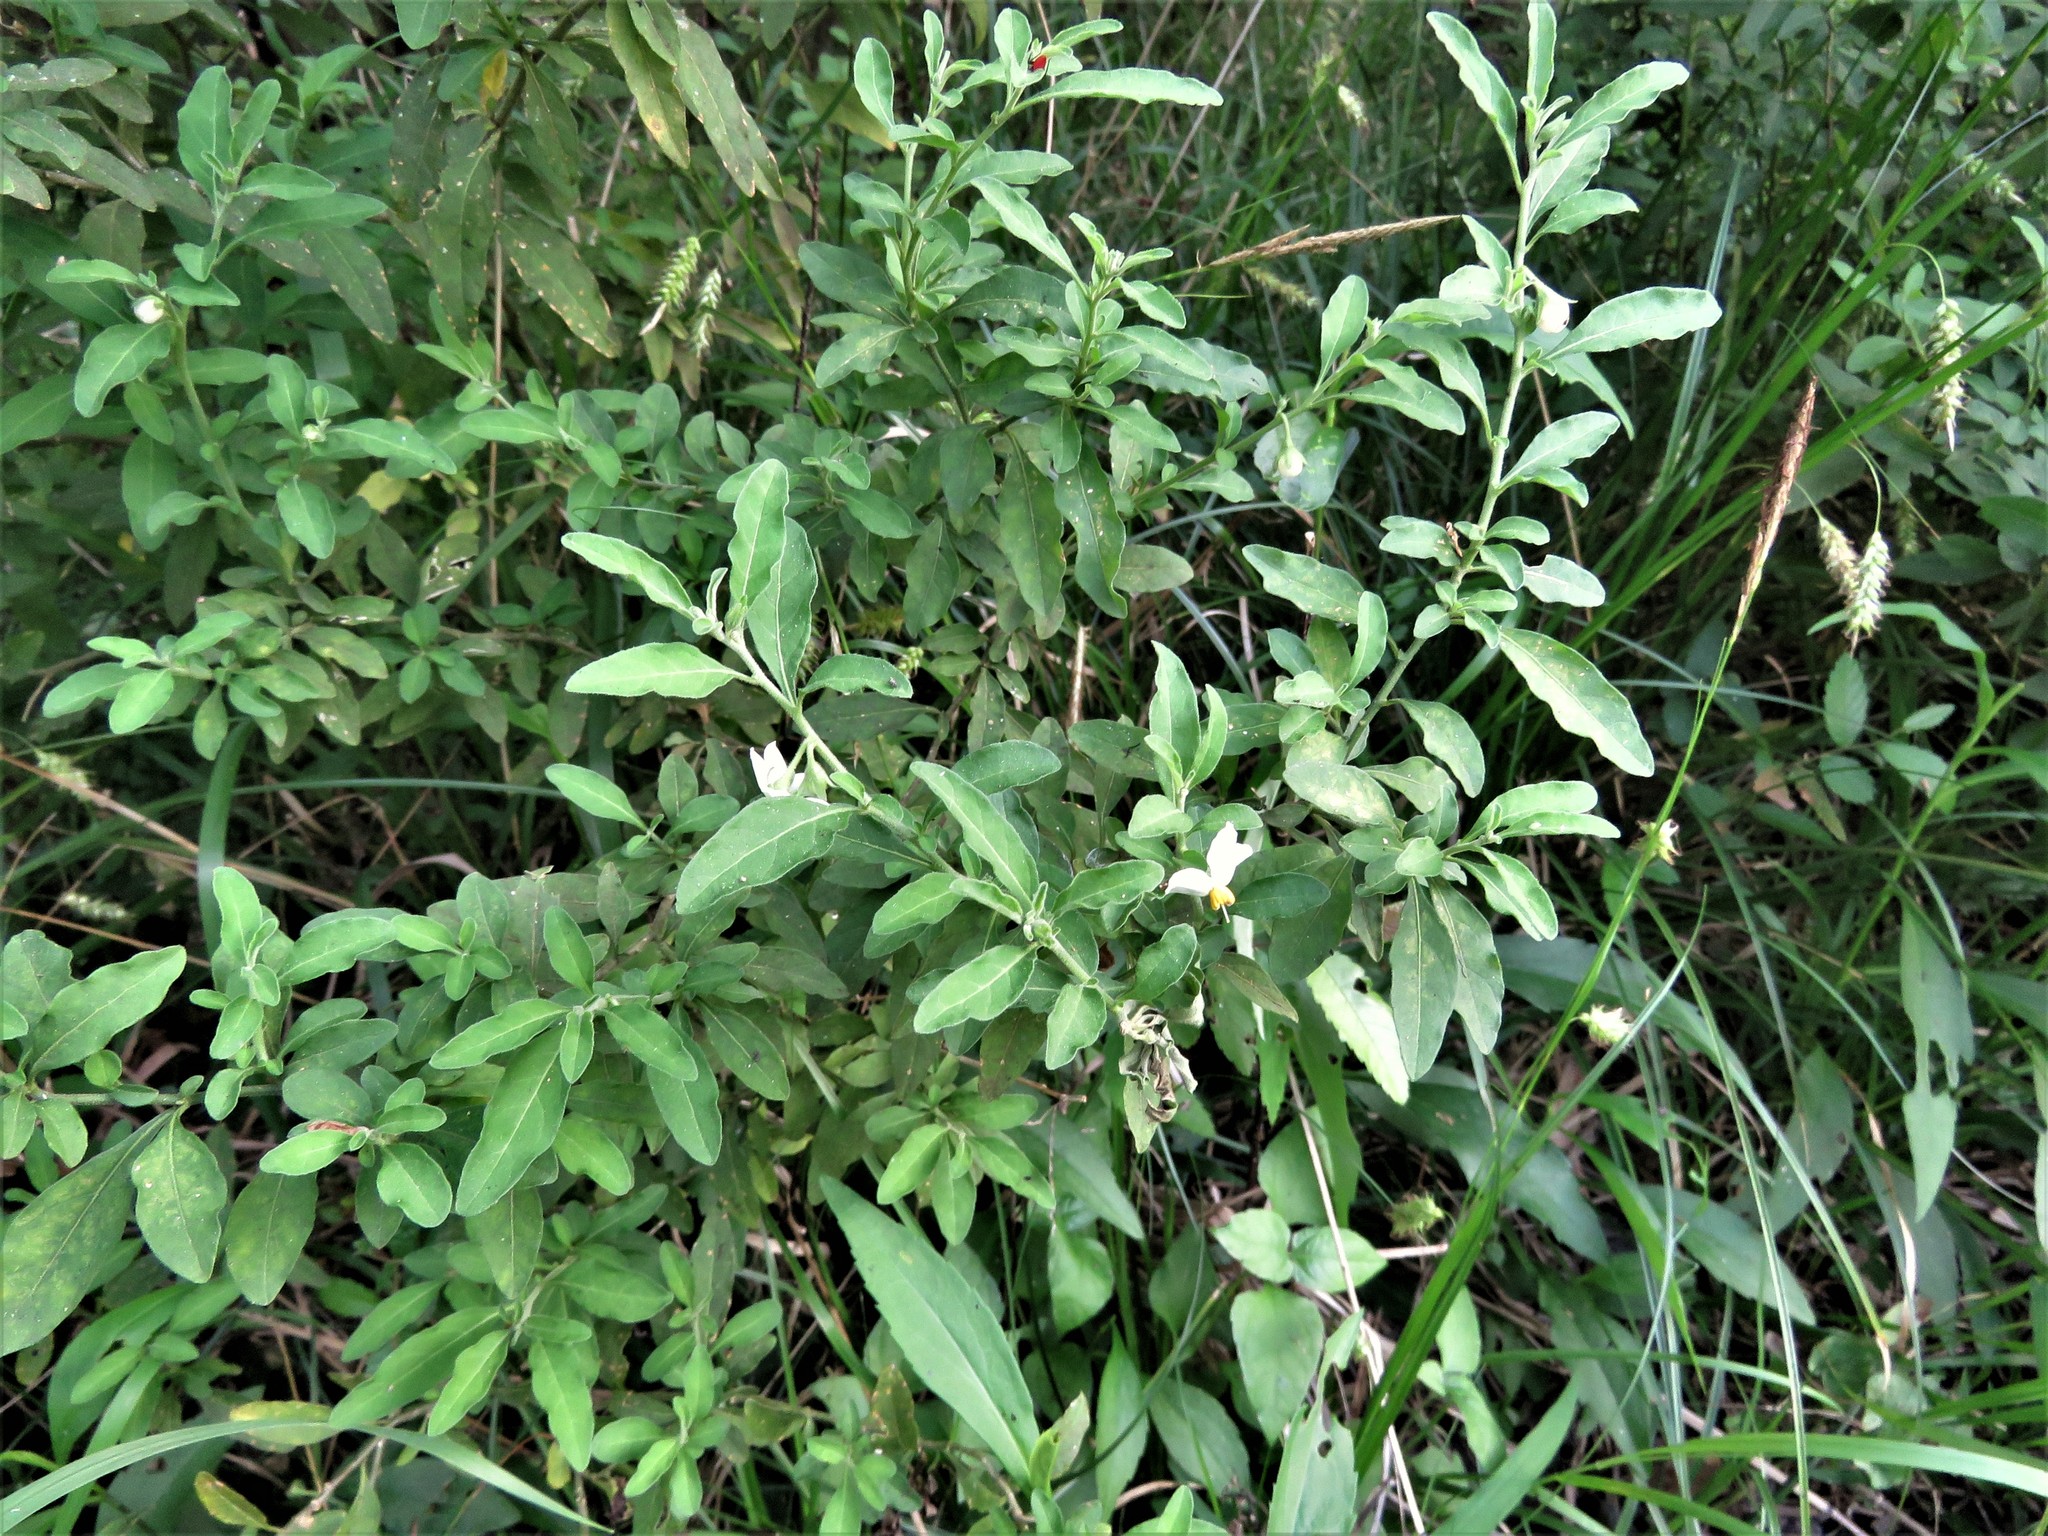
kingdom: Plantae
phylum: Tracheophyta
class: Magnoliopsida
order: Solanales
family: Solanaceae
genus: Solanum
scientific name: Solanum pseudocapsicum
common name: Jerusalem cherry
